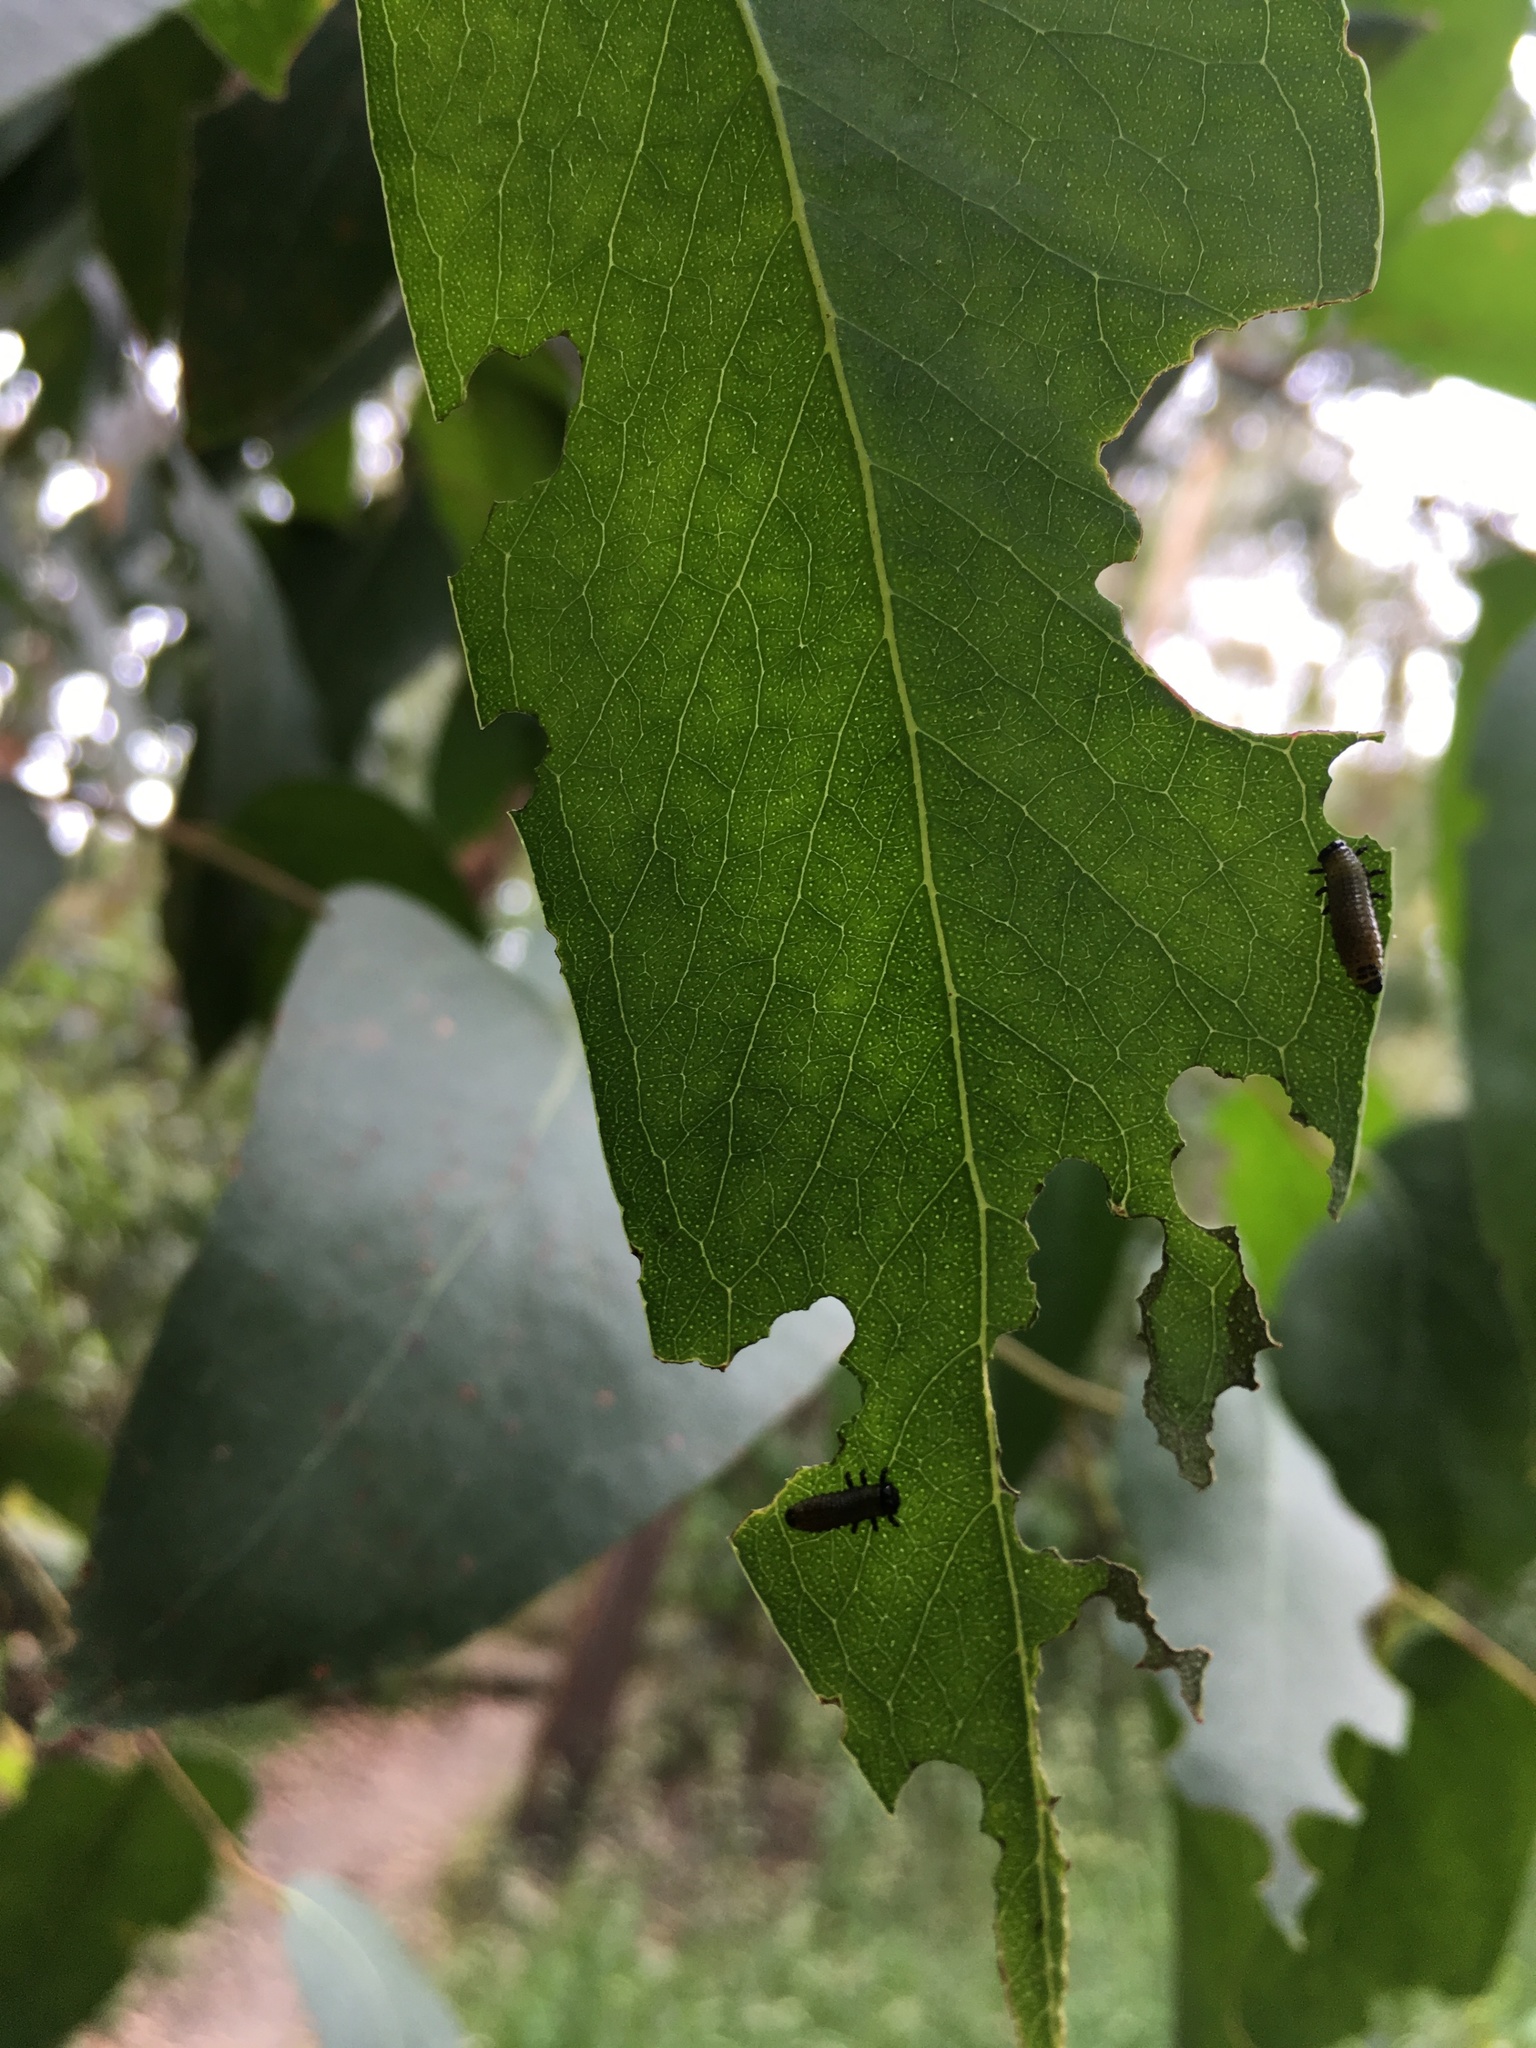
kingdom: Animalia
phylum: Arthropoda
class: Insecta
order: Coleoptera
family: Chrysomelidae
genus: Paropsis
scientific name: Paropsis charybdis
